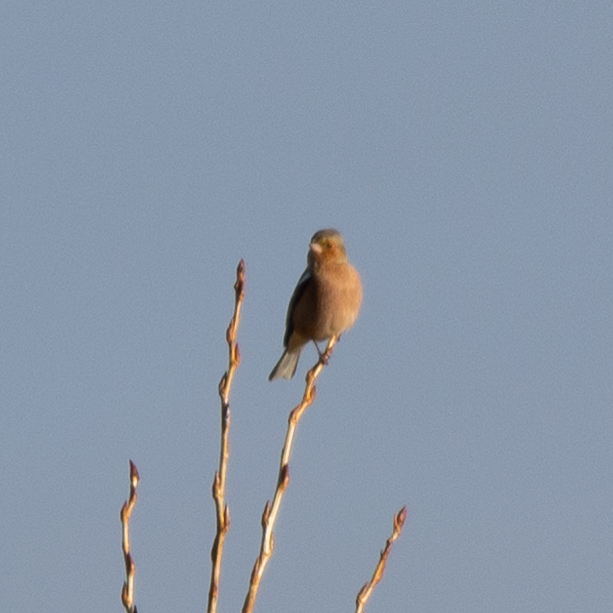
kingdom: Animalia
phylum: Chordata
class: Aves
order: Passeriformes
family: Fringillidae
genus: Fringilla
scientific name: Fringilla coelebs
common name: Common chaffinch
